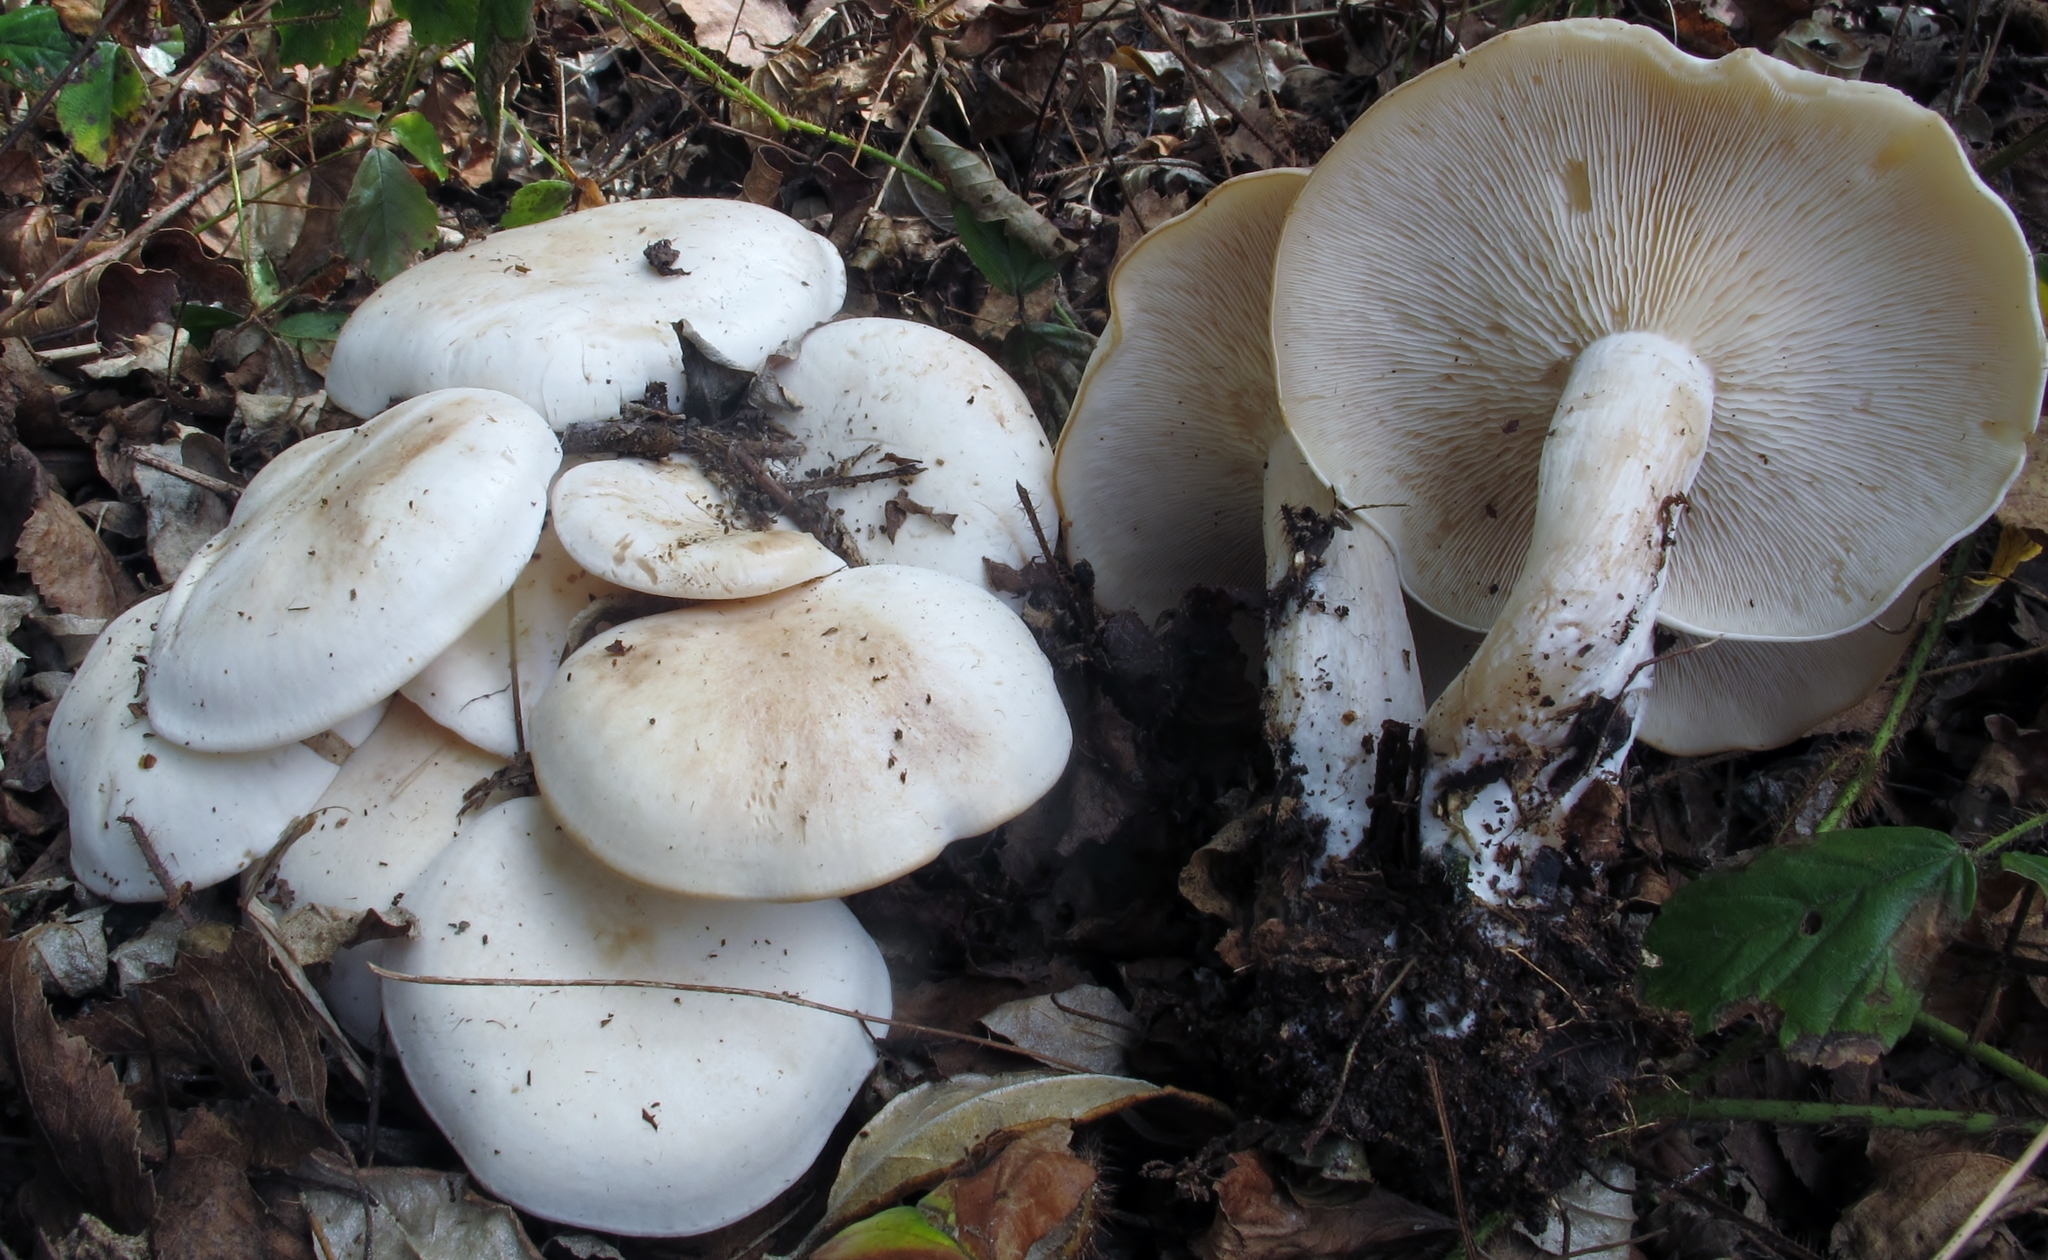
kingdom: Fungi
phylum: Basidiomycota
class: Agaricomycetes
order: Agaricales
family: Tricholomataceae
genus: Lepista
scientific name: Lepista subconnexa
